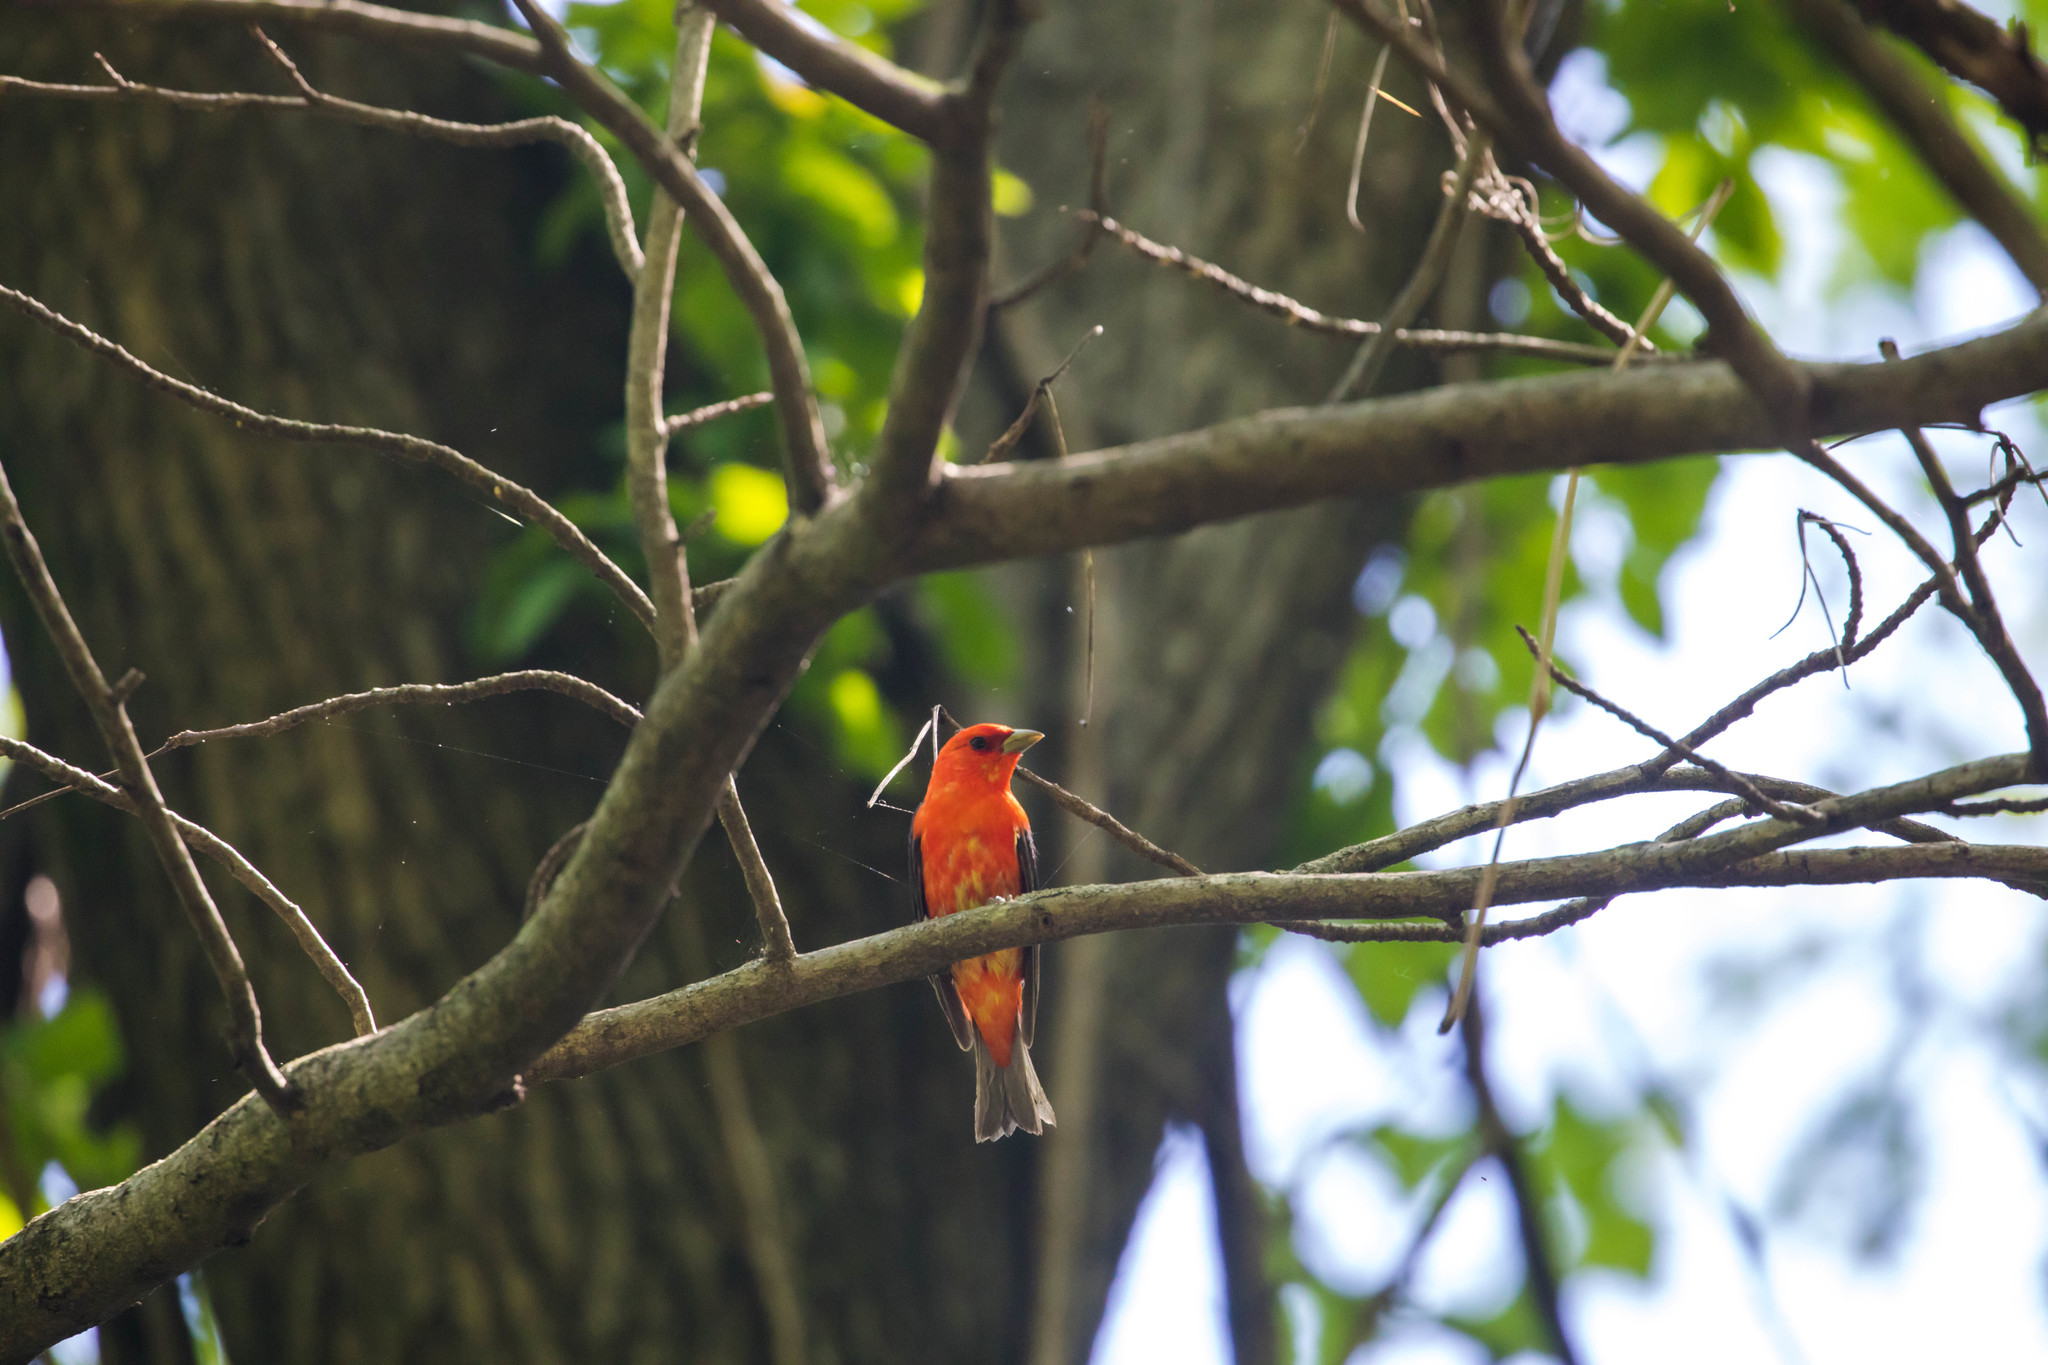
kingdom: Animalia
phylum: Chordata
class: Aves
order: Passeriformes
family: Cardinalidae
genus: Piranga
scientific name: Piranga olivacea
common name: Scarlet tanager
